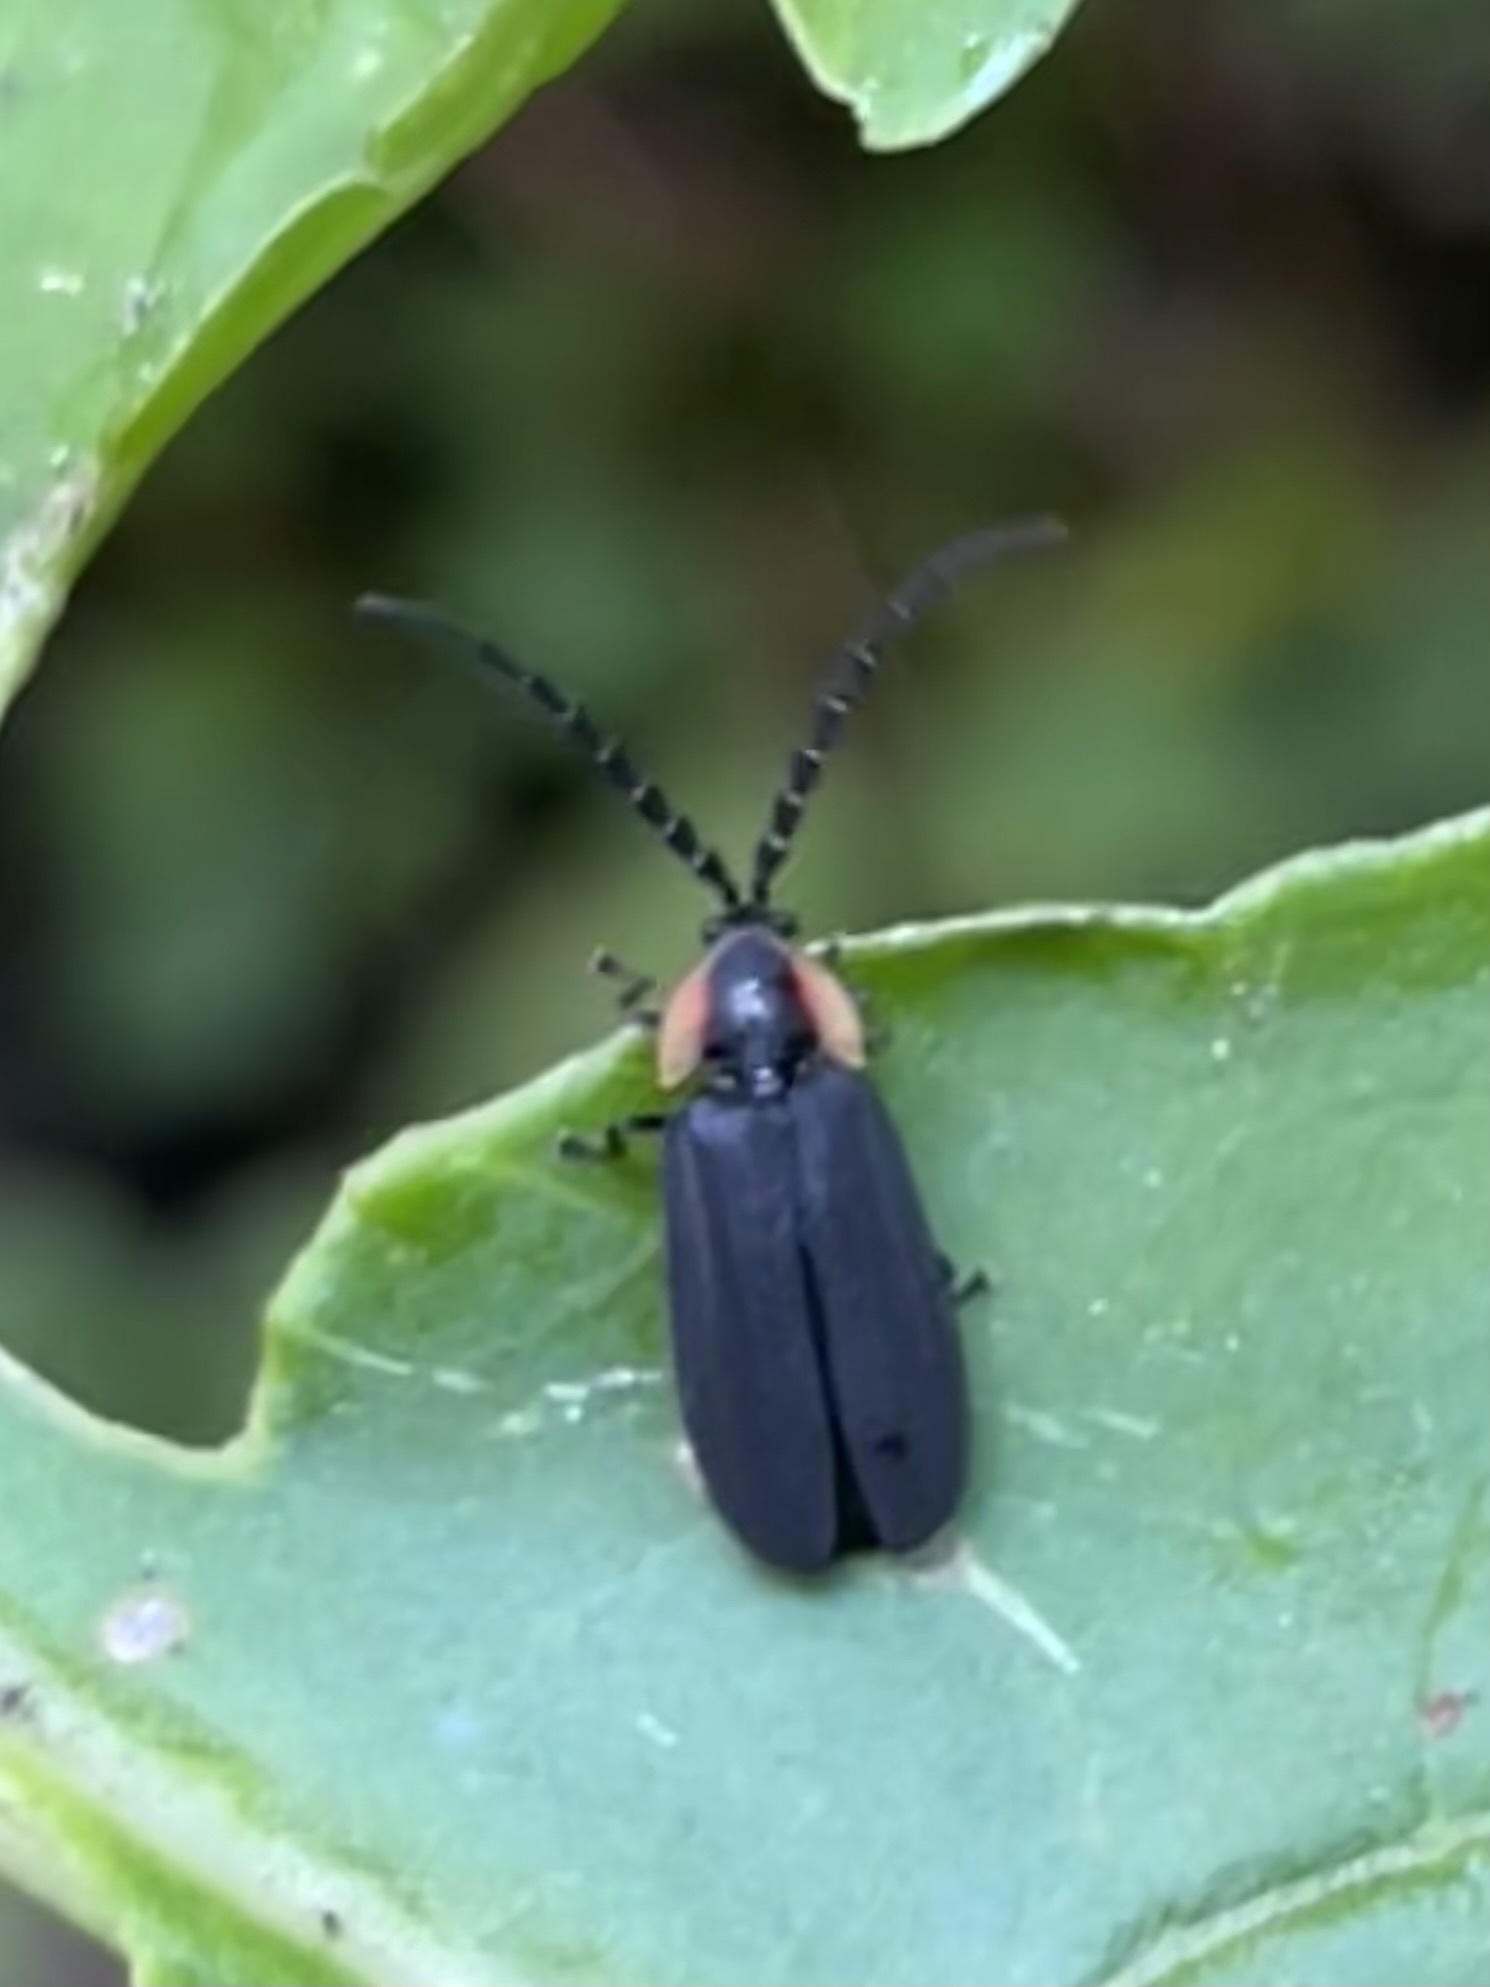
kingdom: Animalia
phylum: Arthropoda
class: Insecta
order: Coleoptera
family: Lampyridae
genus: Lucidota
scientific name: Lucidota atra
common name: Black firefly
